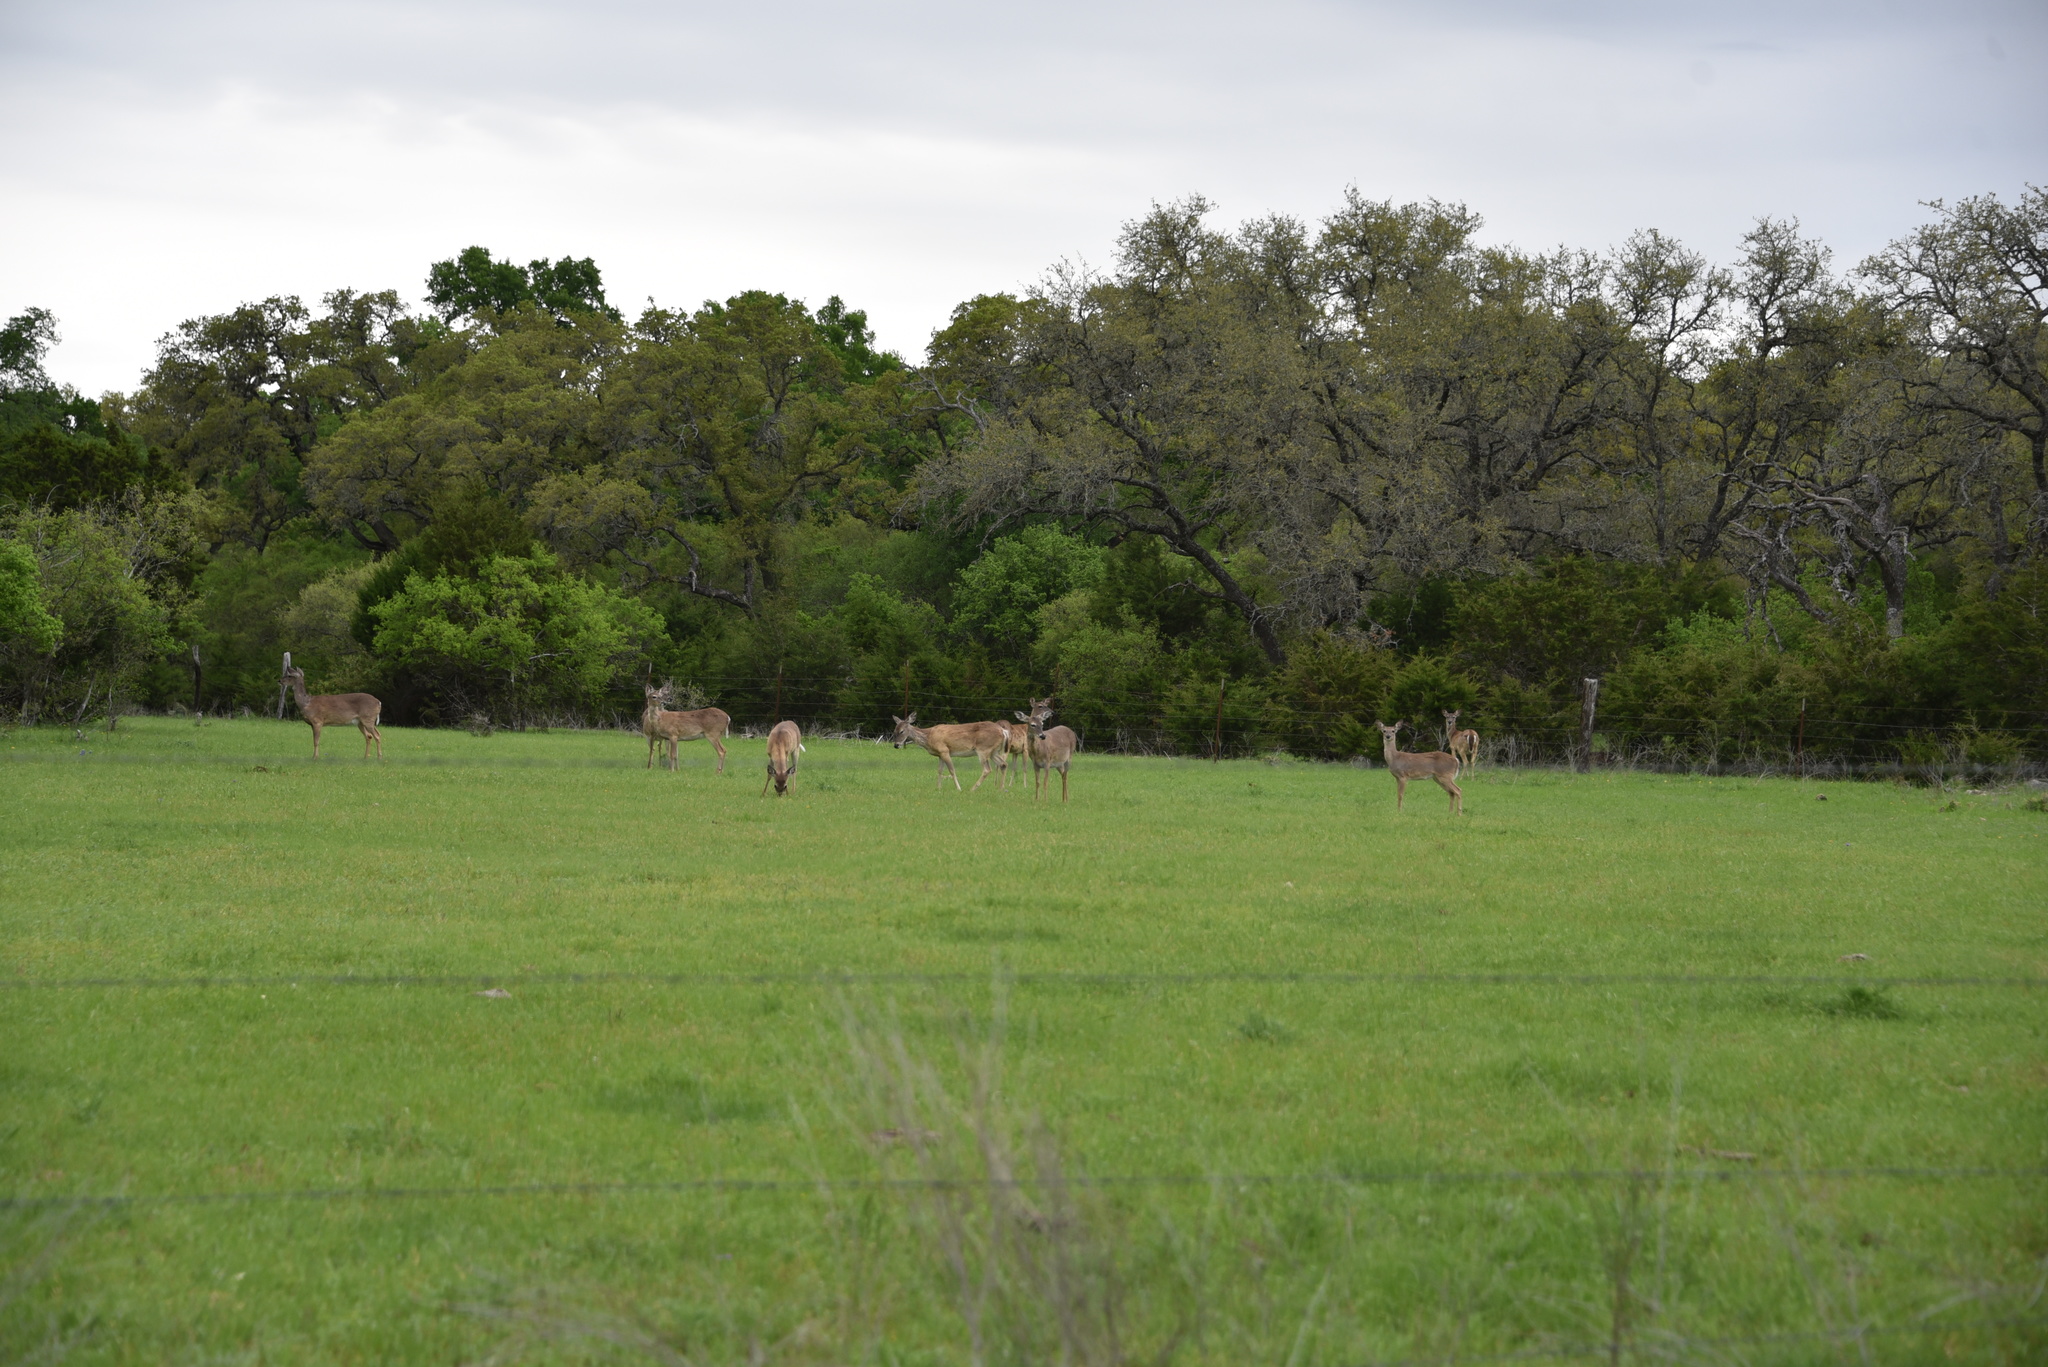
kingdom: Animalia
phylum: Chordata
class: Mammalia
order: Artiodactyla
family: Cervidae
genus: Odocoileus
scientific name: Odocoileus virginianus
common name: White-tailed deer
